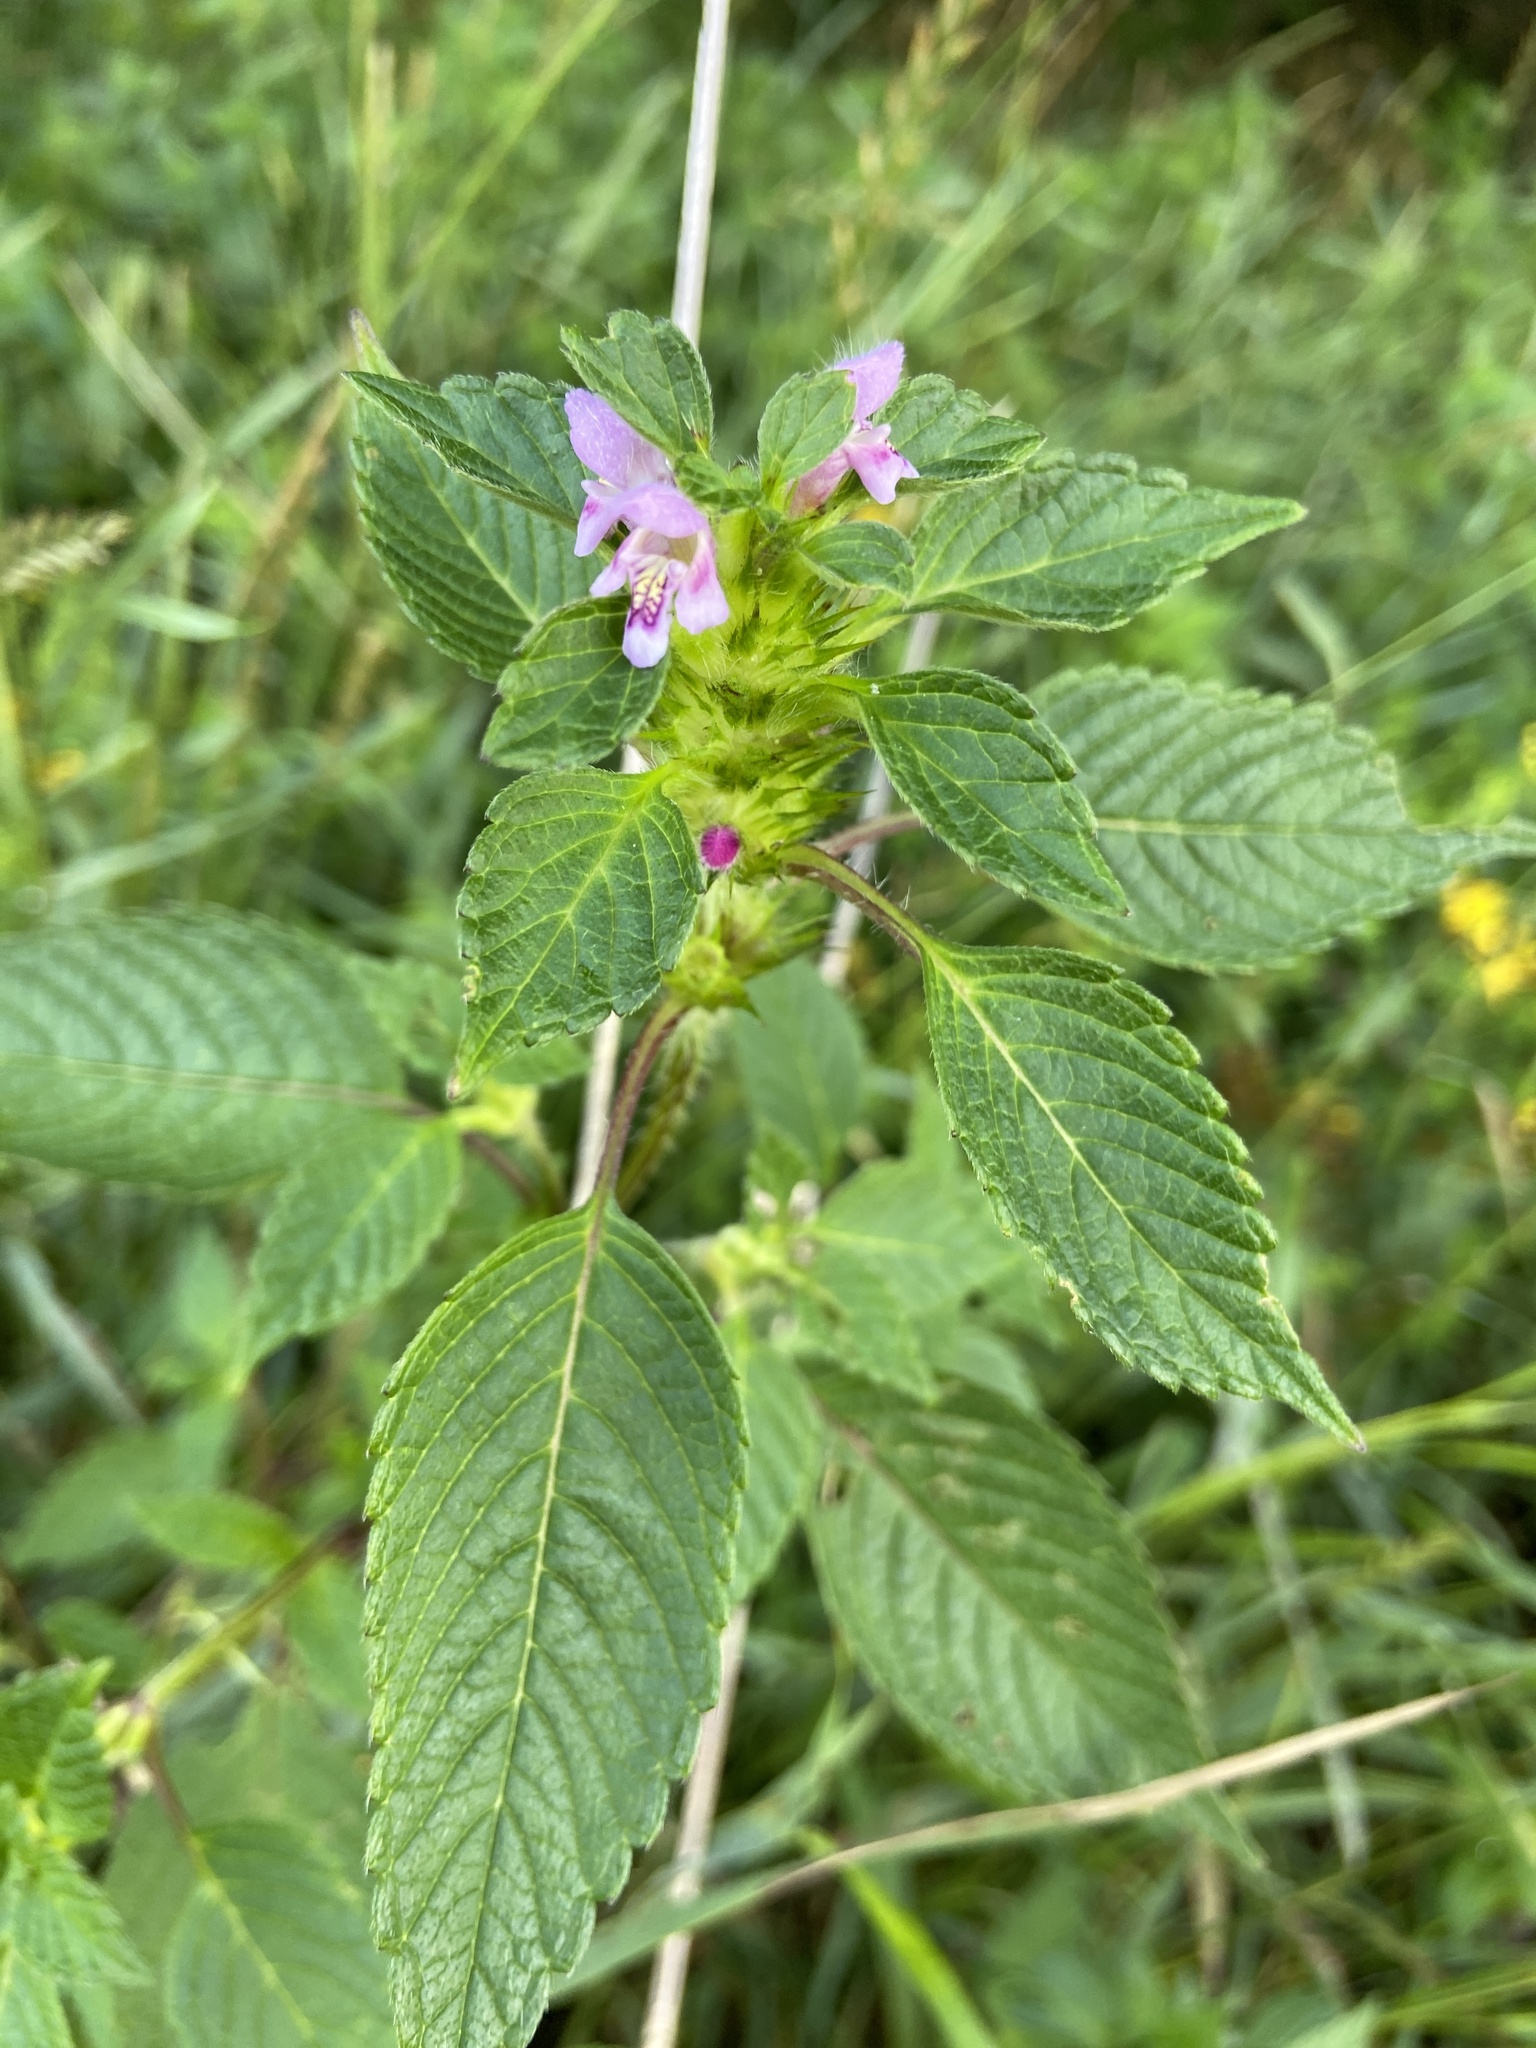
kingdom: Plantae
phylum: Tracheophyta
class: Magnoliopsida
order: Lamiales
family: Lamiaceae
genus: Galeopsis
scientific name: Galeopsis tetrahit
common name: Common hemp-nettle
